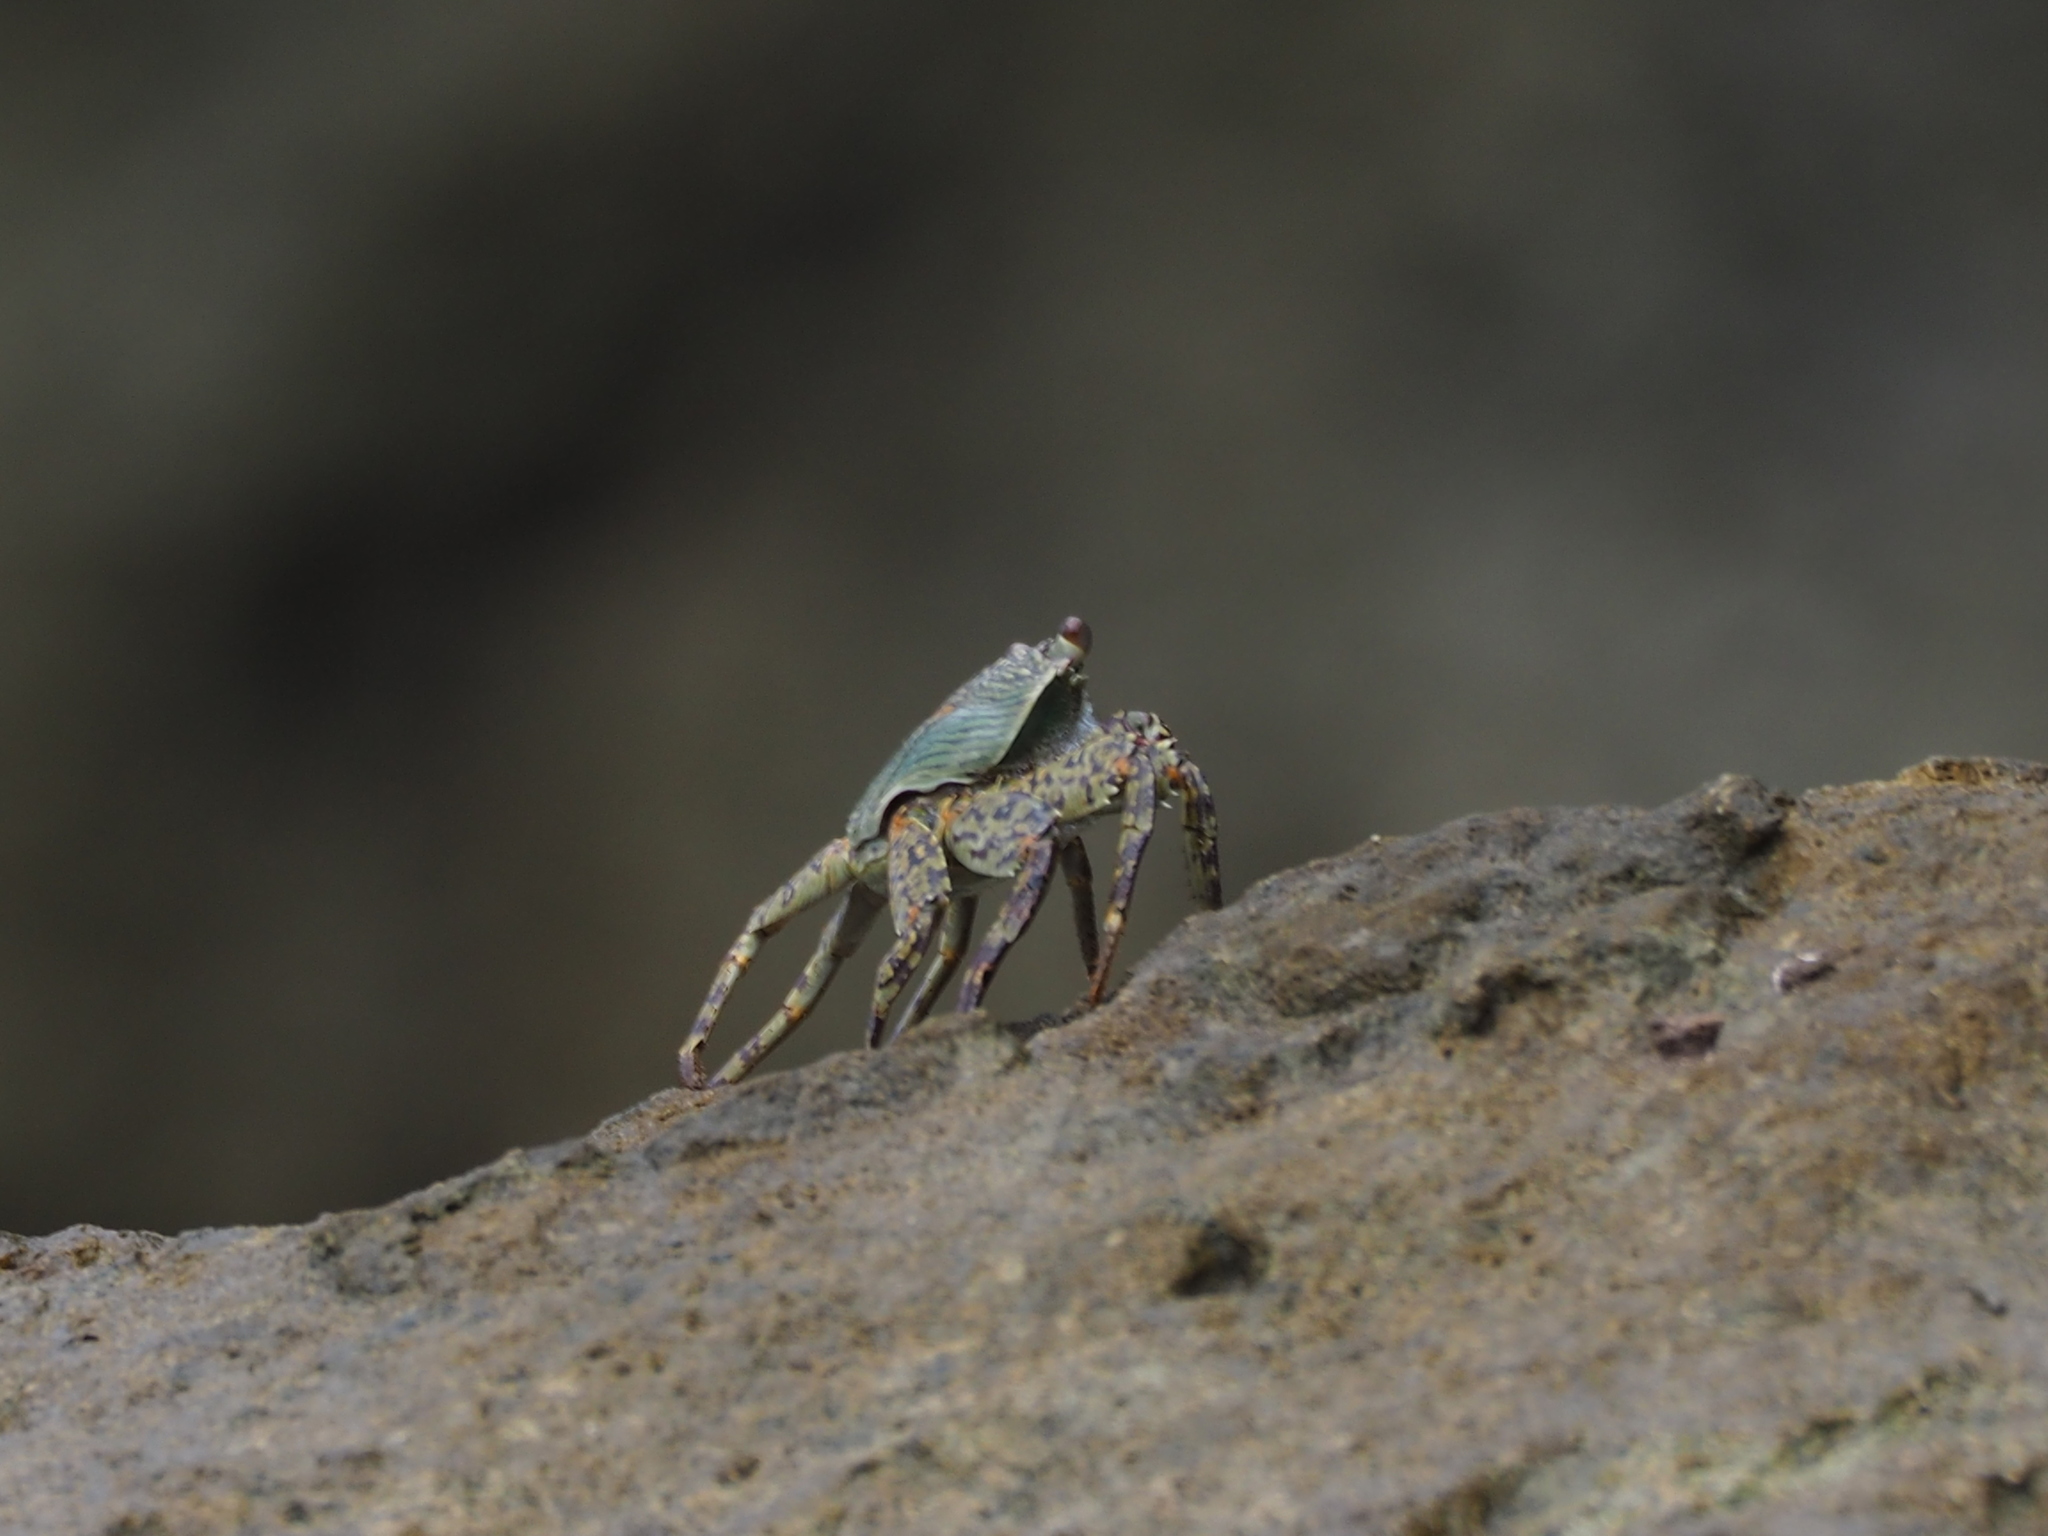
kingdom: Animalia
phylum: Arthropoda
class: Malacostraca
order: Decapoda
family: Grapsidae
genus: Grapsus
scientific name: Grapsus albolineatus
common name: Mottled lightfoot crab
